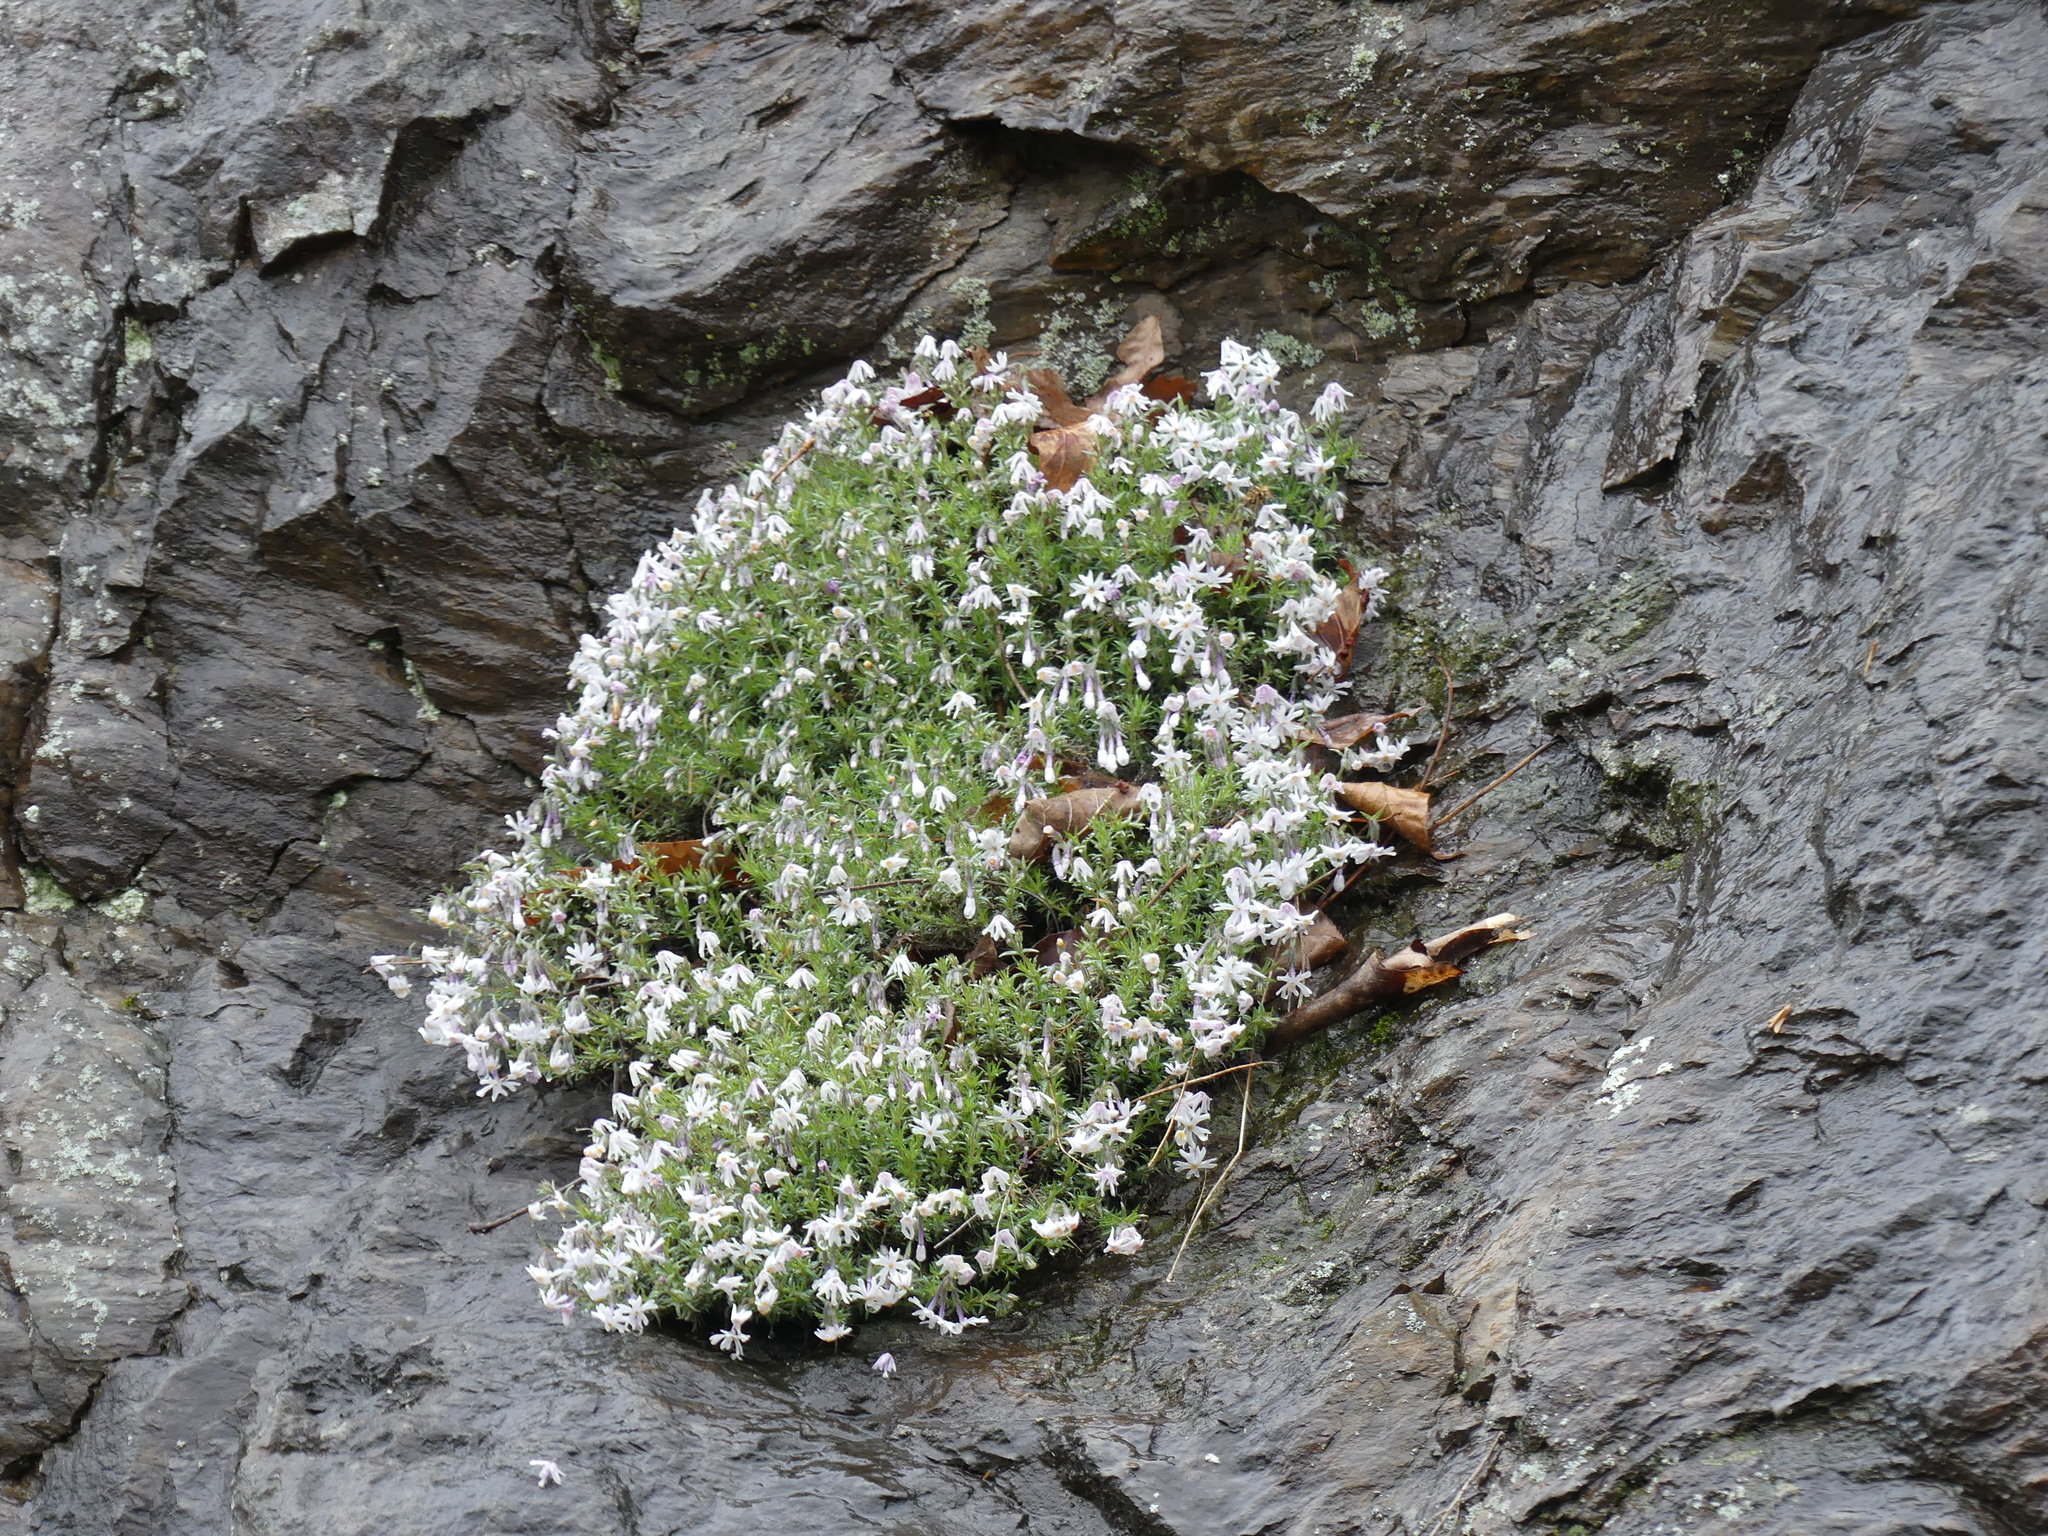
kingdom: Plantae
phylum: Tracheophyta
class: Magnoliopsida
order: Ericales
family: Polemoniaceae
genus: Phlox
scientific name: Phlox subulata
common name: Moss phlox
